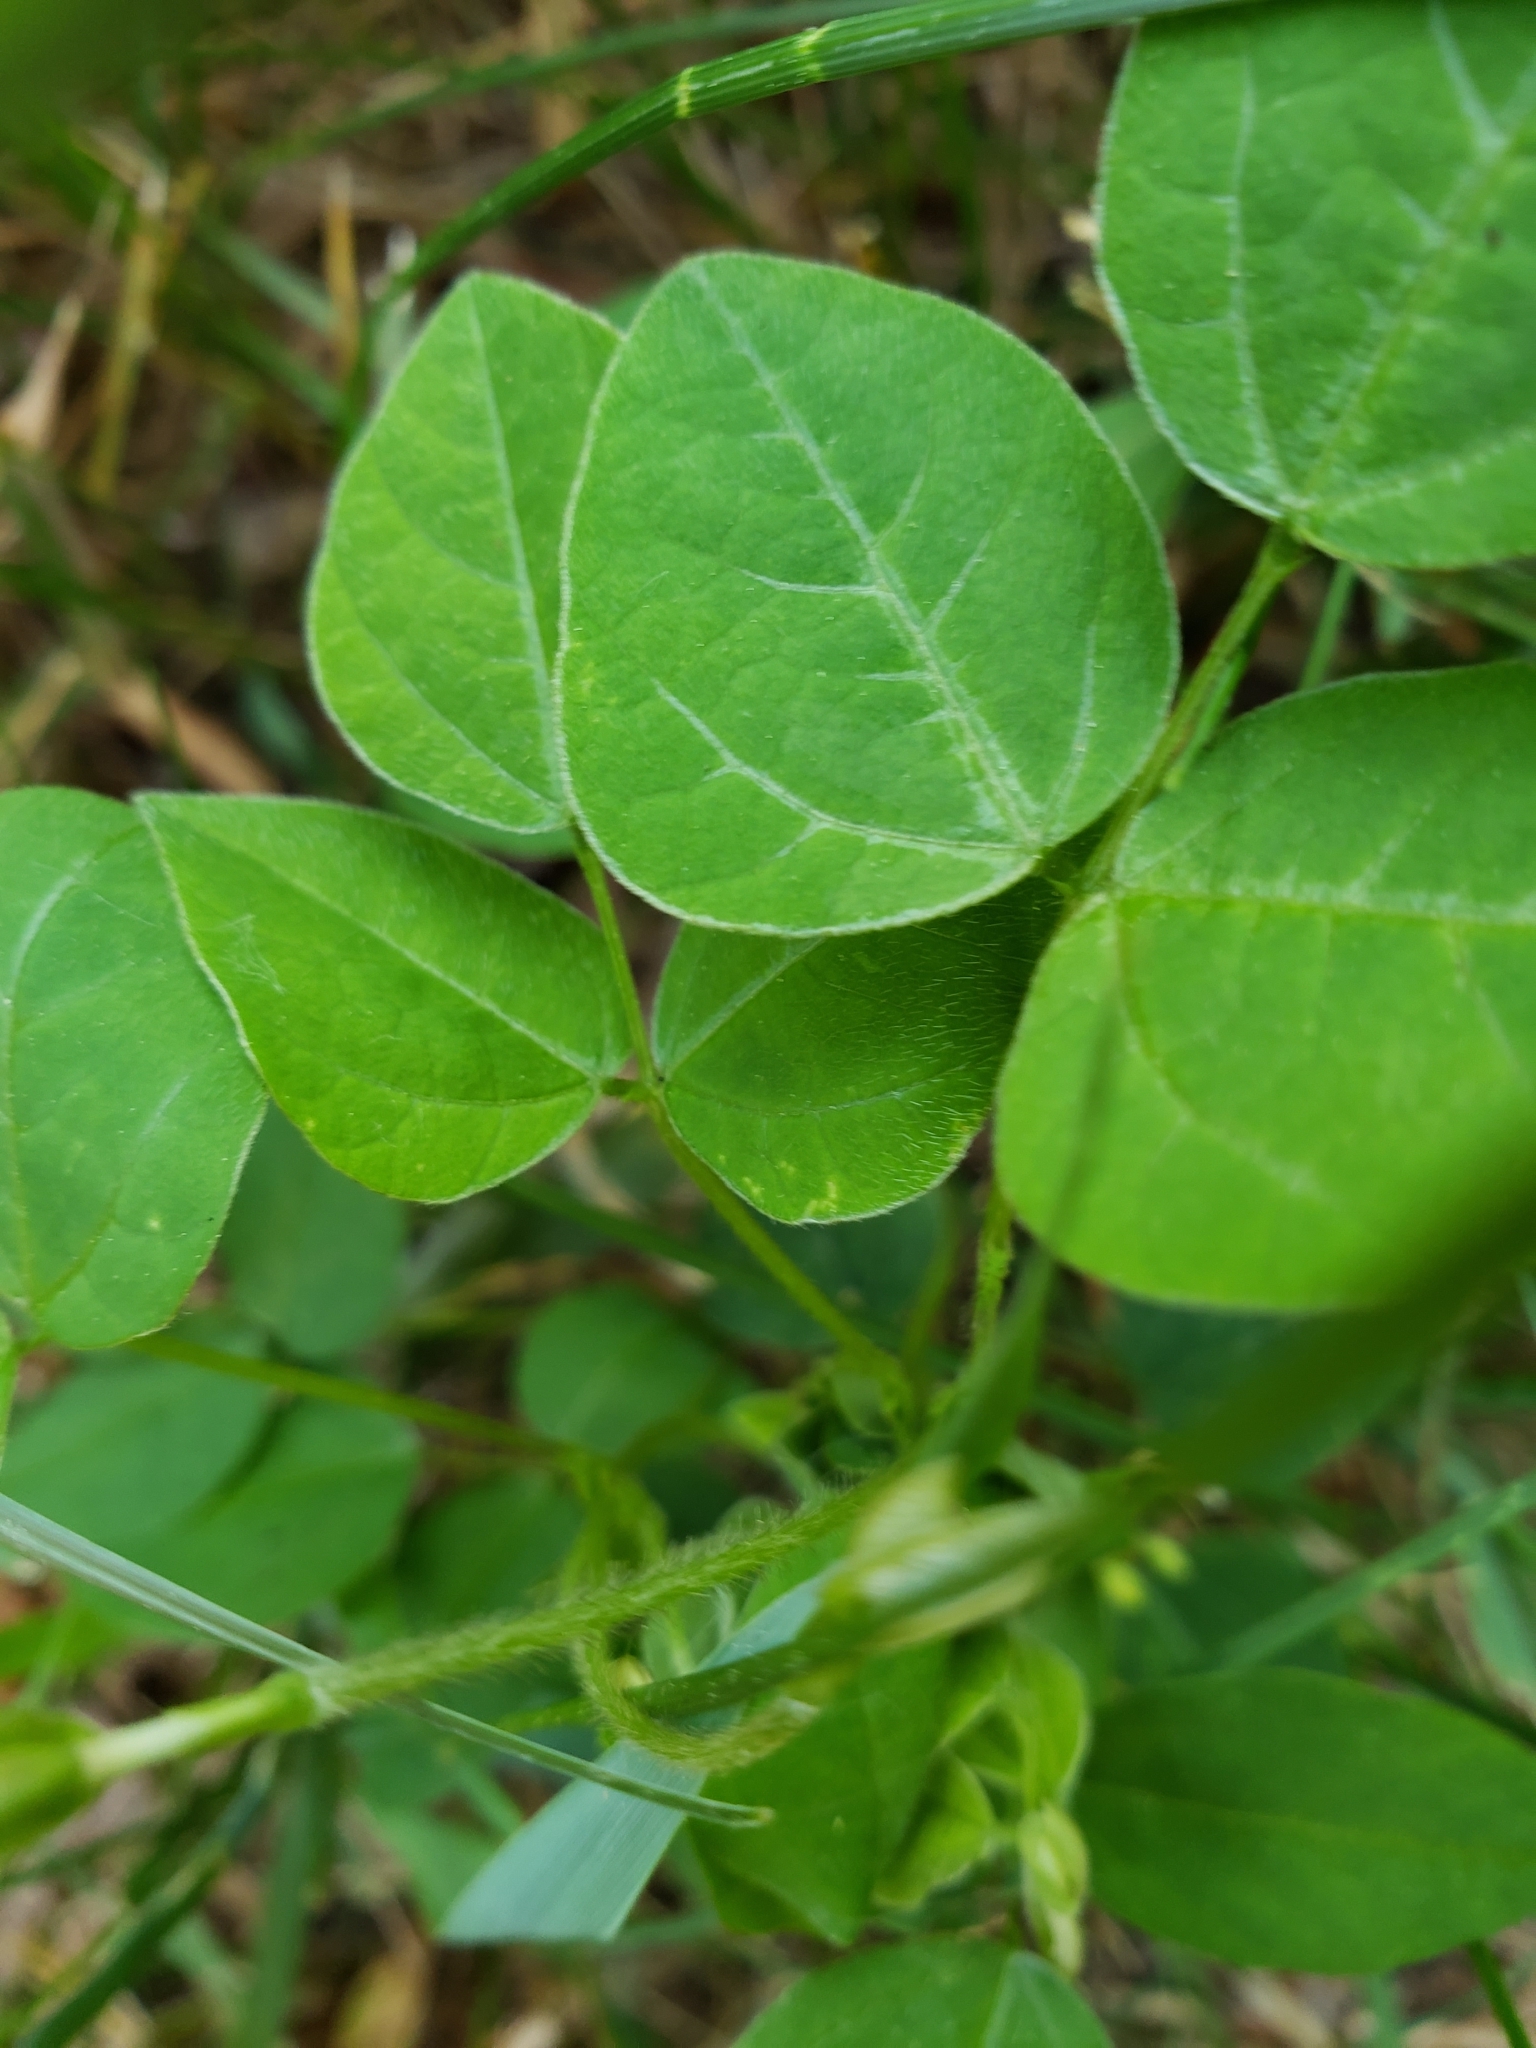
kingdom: Plantae
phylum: Tracheophyta
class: Magnoliopsida
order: Fabales
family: Fabaceae
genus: Amphicarpaea
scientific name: Amphicarpaea bracteata
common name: American hog peanut
